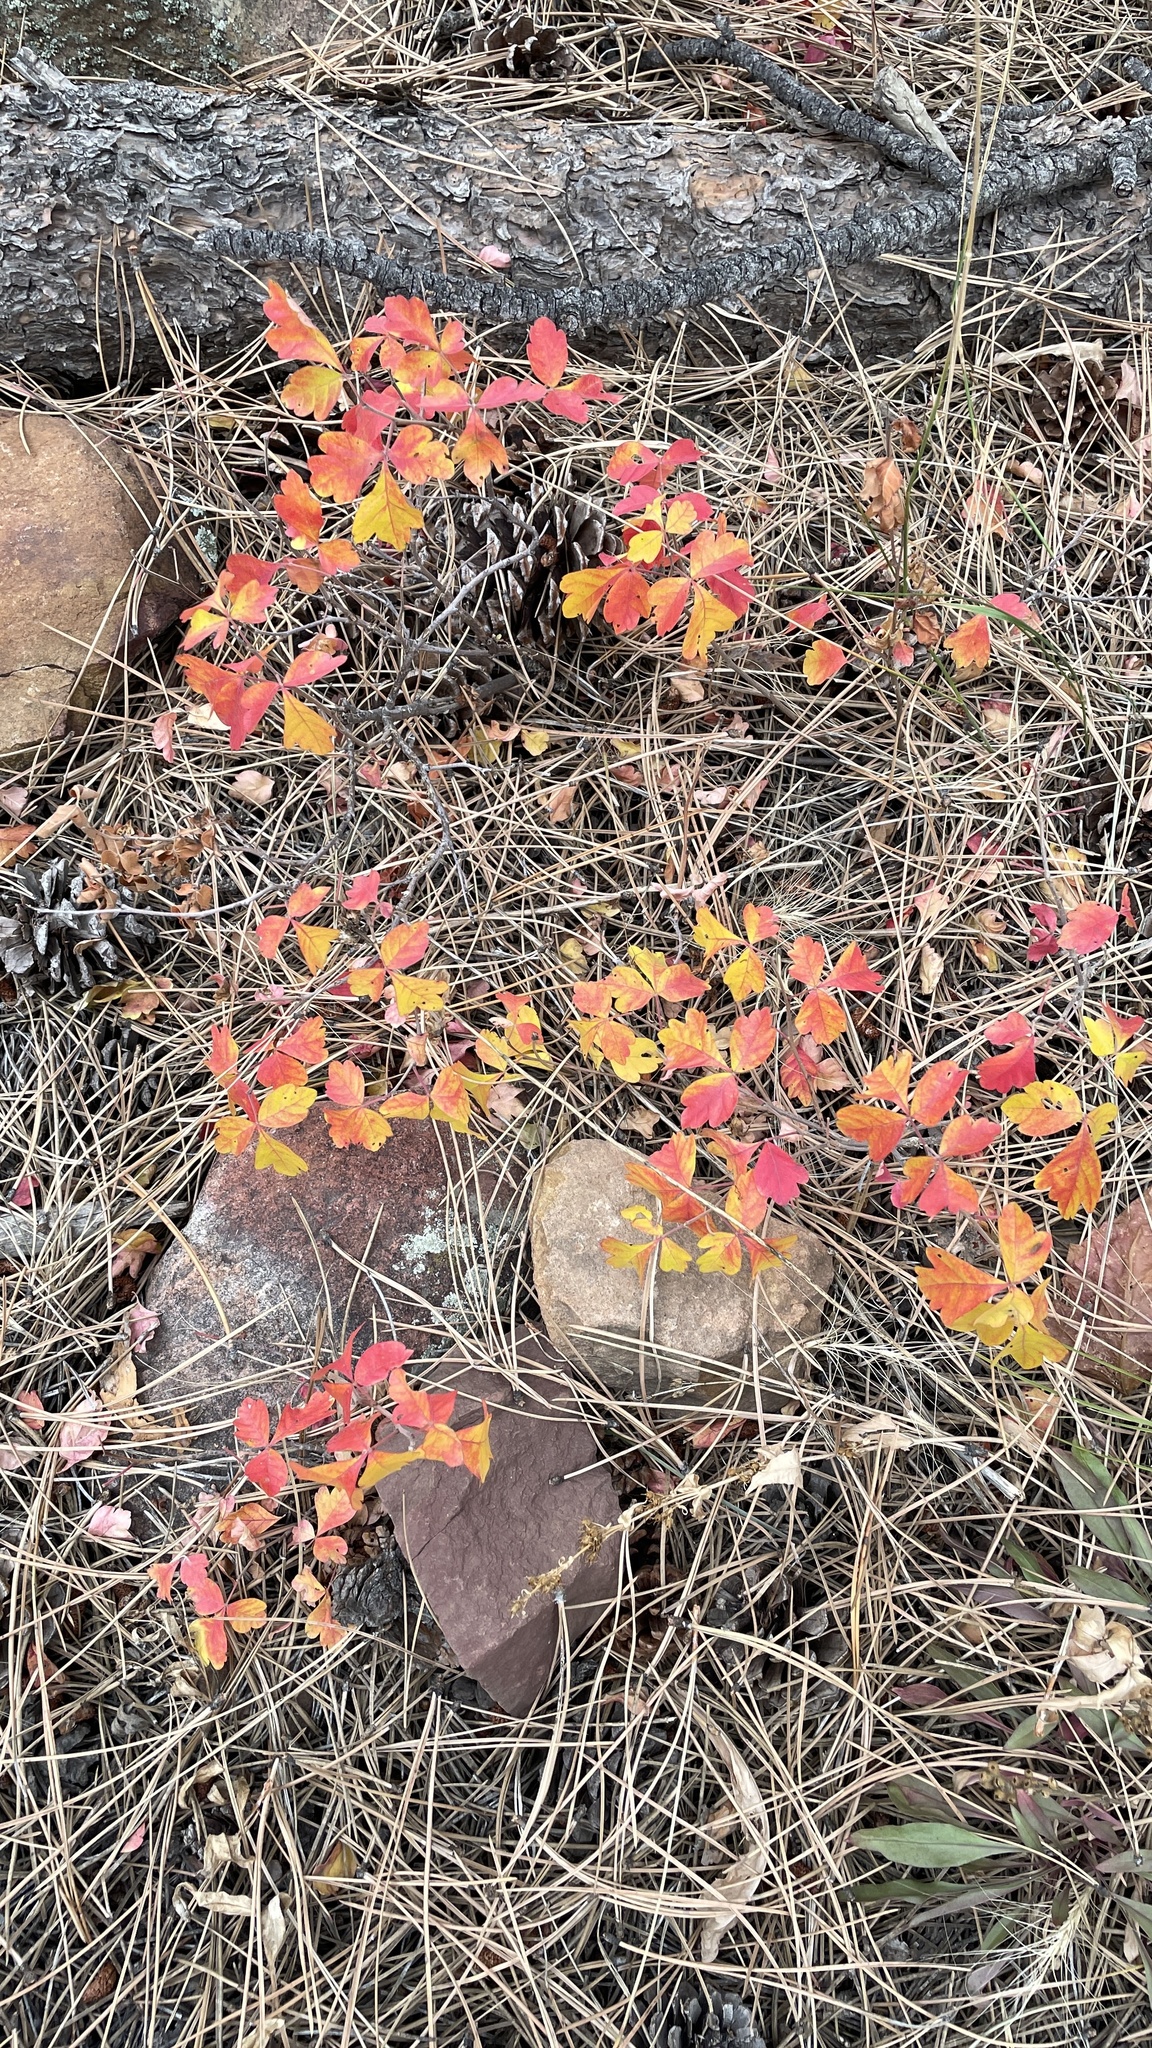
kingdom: Plantae
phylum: Tracheophyta
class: Magnoliopsida
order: Sapindales
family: Anacardiaceae
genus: Rhus
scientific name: Rhus trilobata
